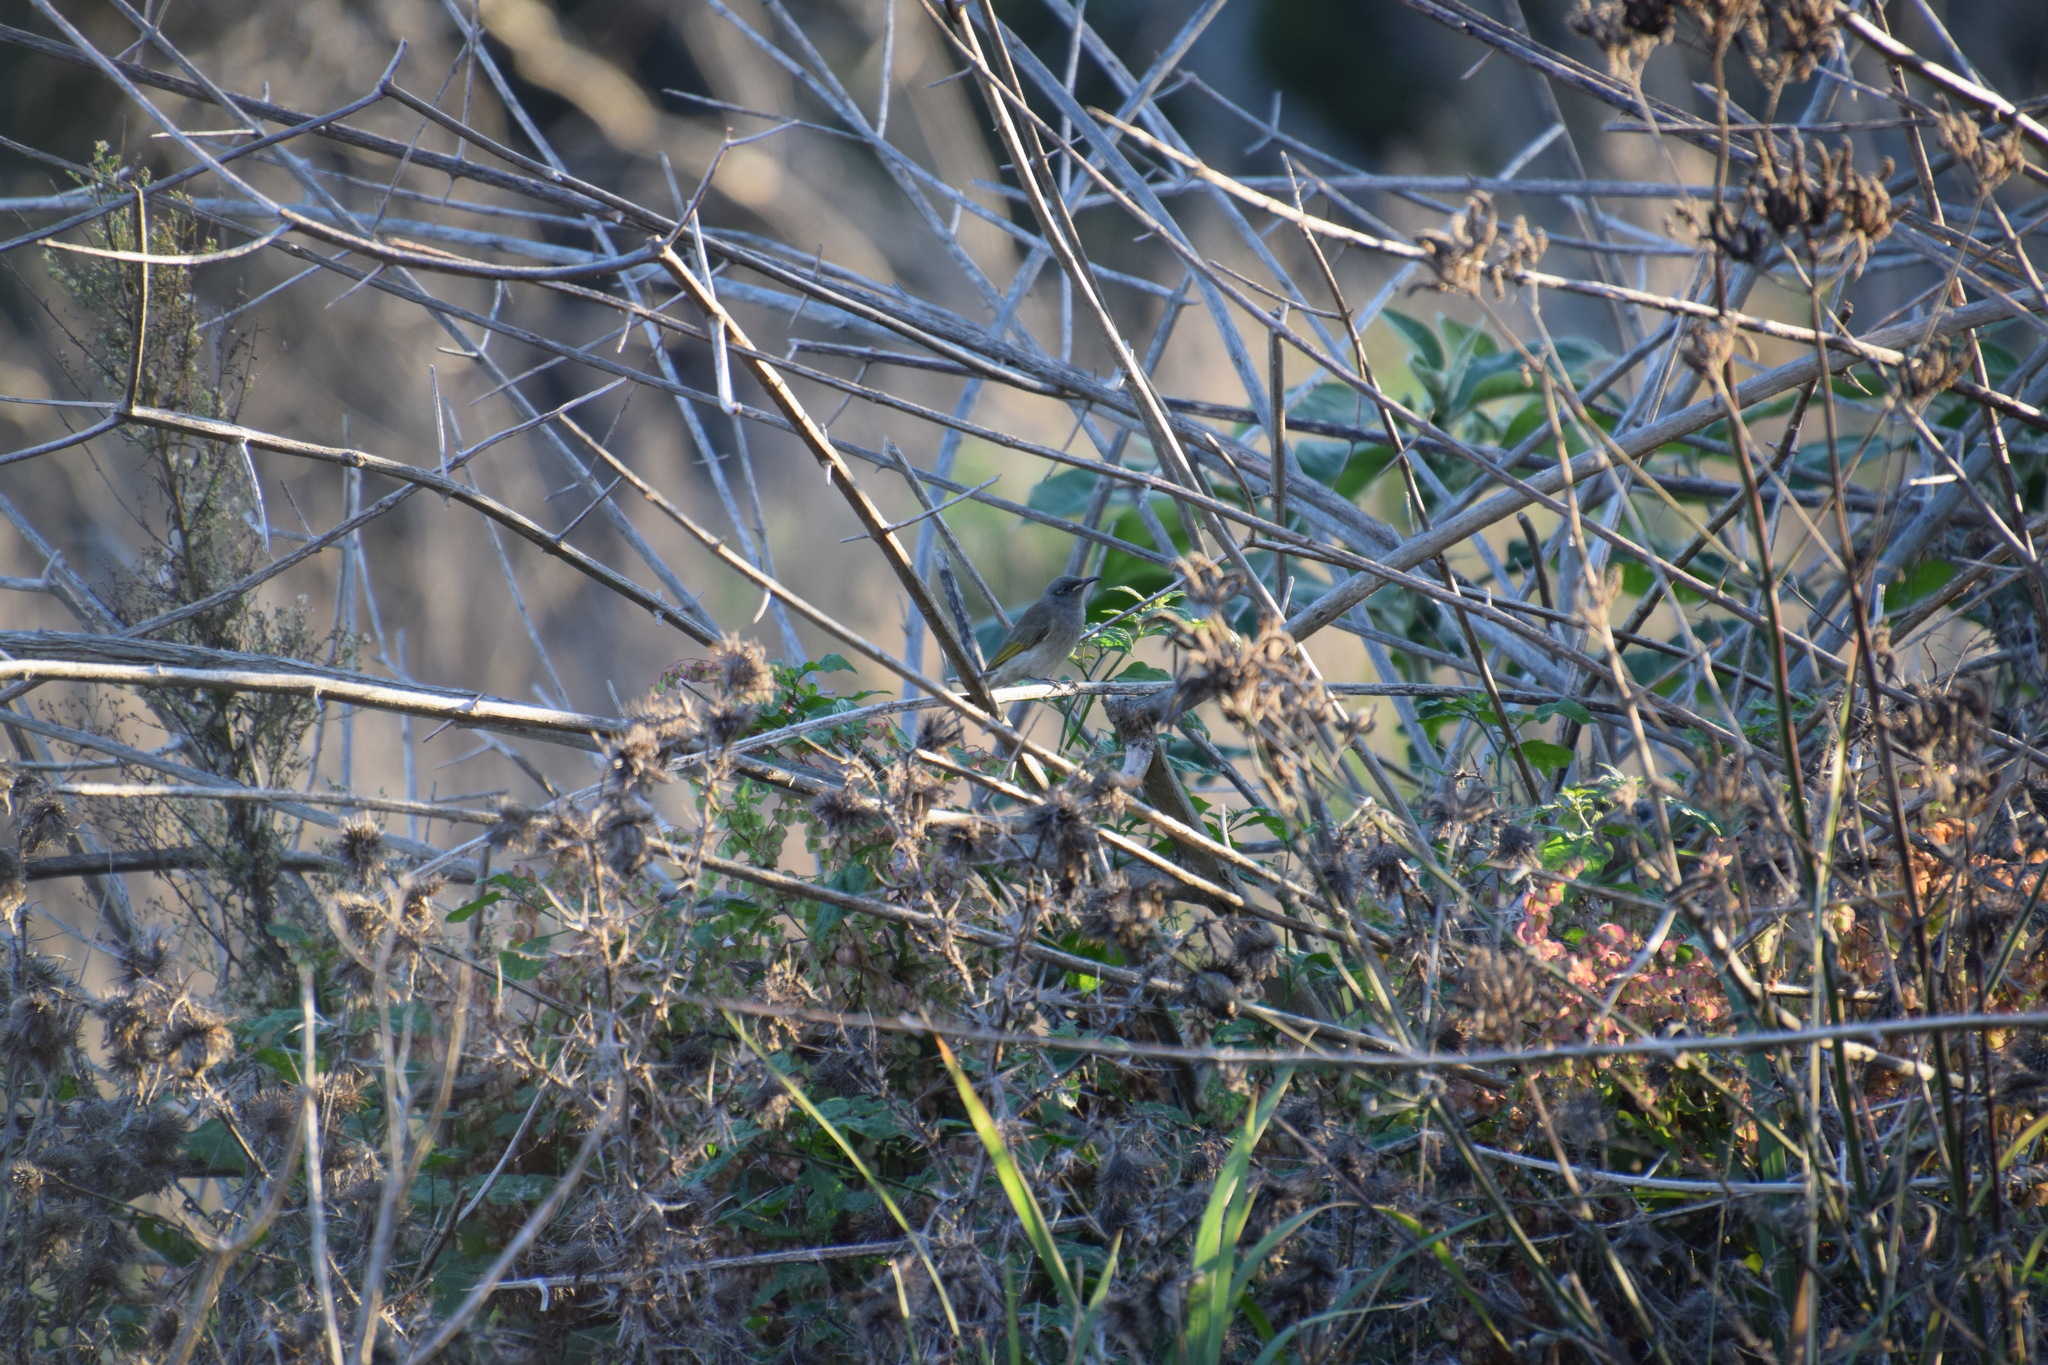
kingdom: Animalia
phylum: Chordata
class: Aves
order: Passeriformes
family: Meliphagidae
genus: Lichmera
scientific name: Lichmera indistincta
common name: Brown honeyeater
